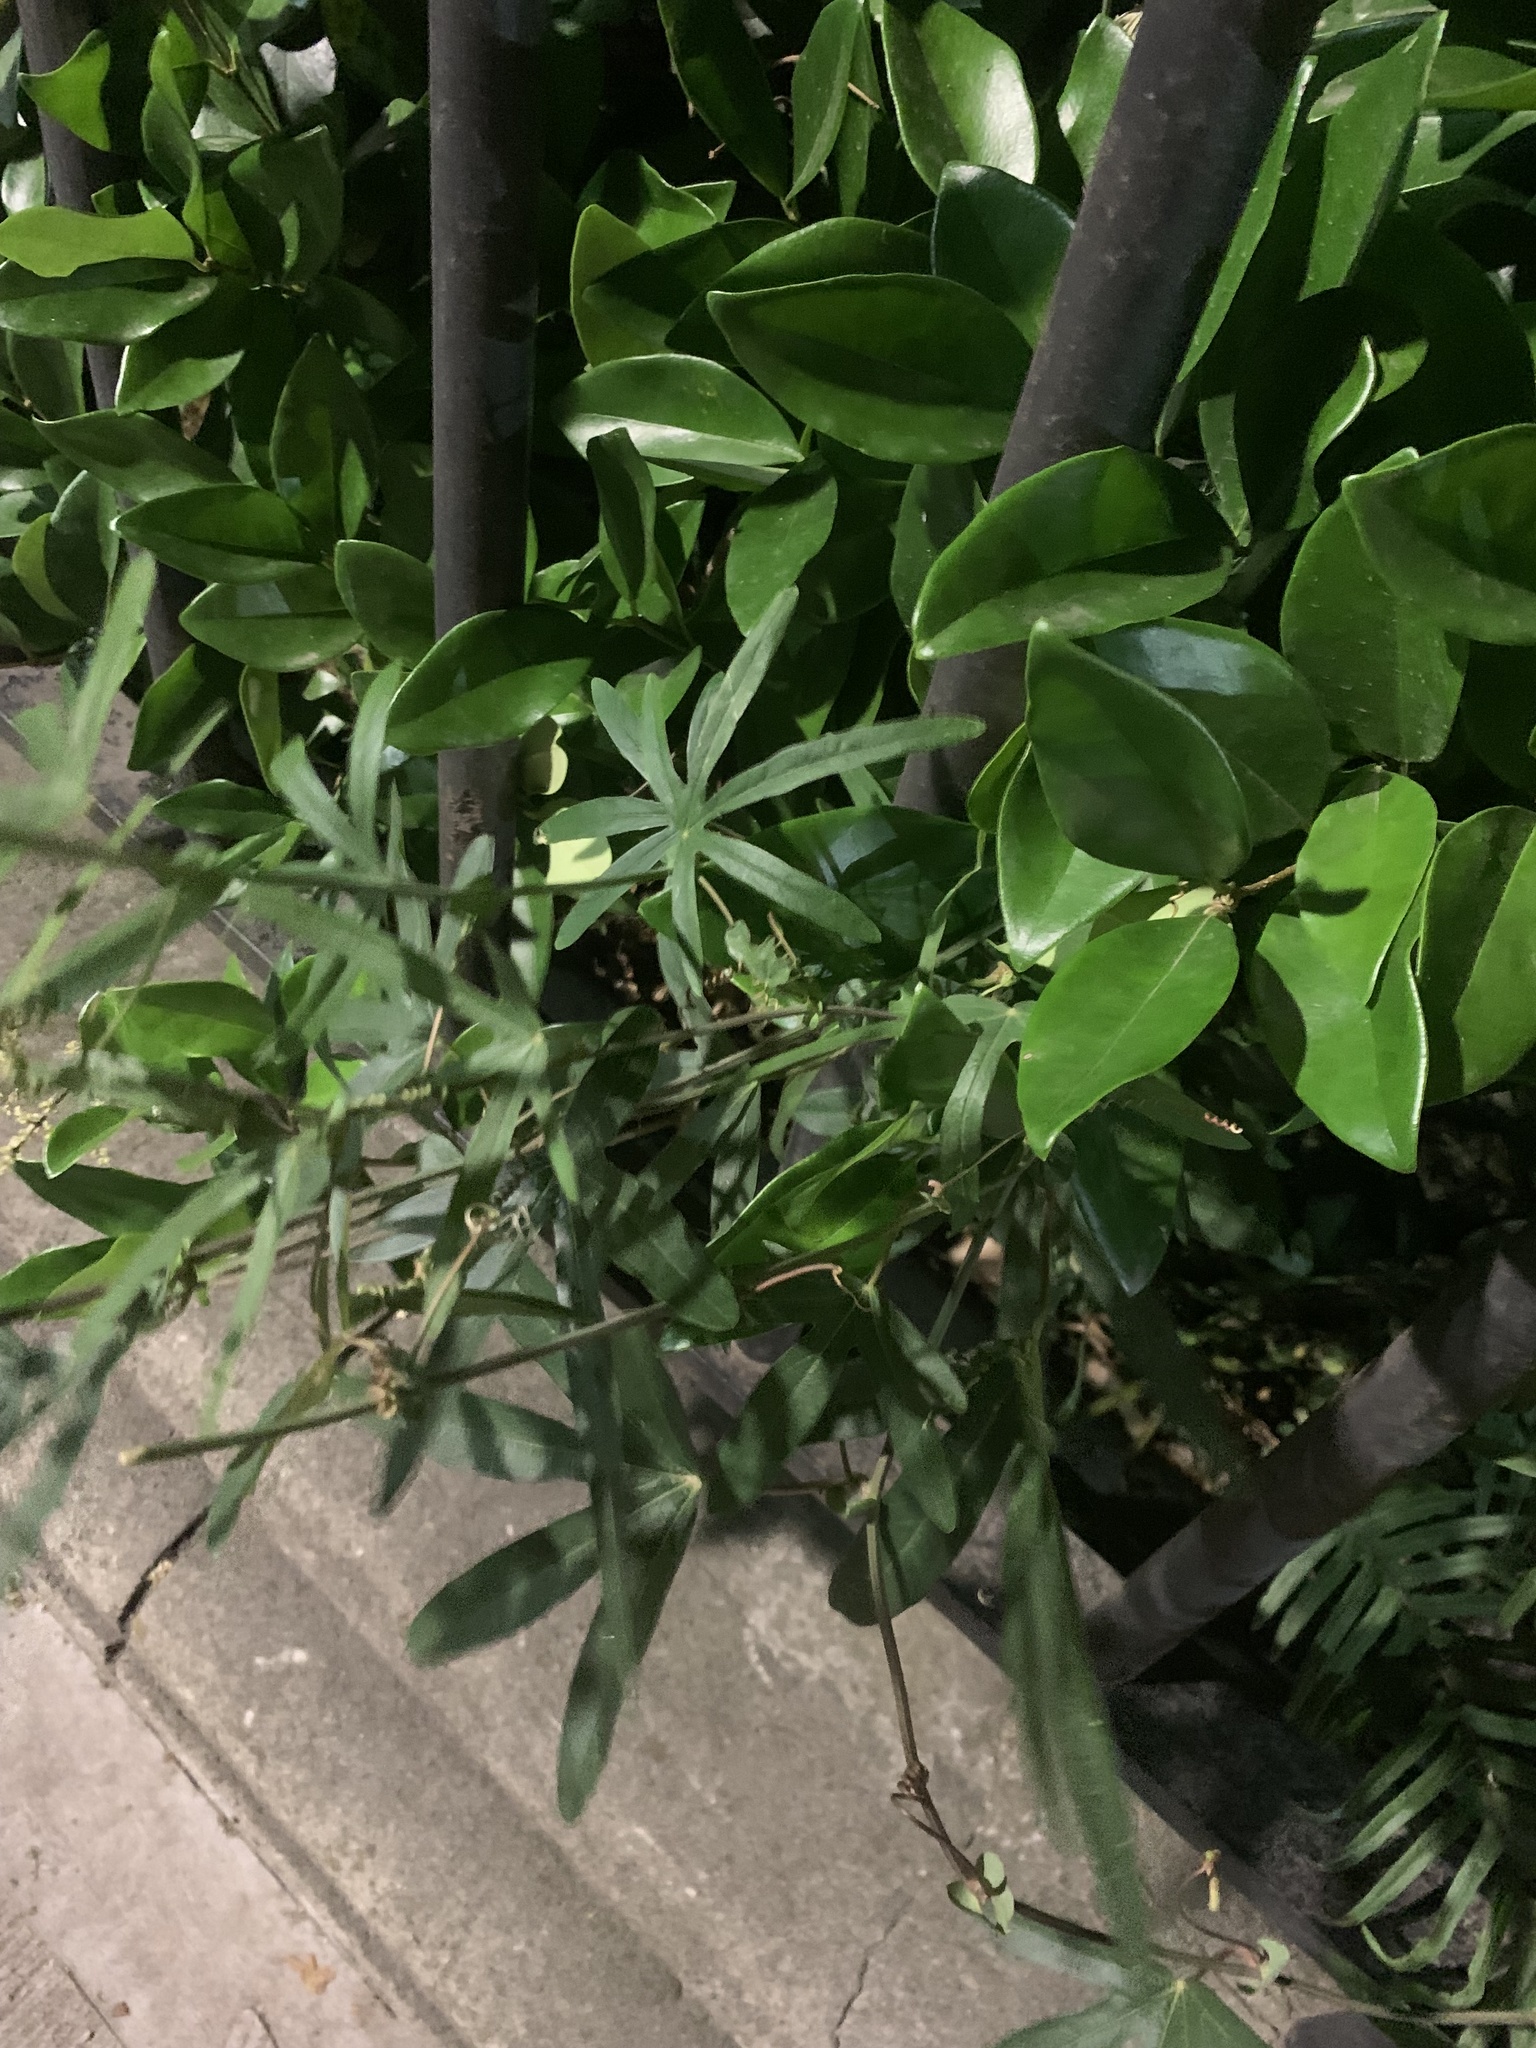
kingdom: Plantae
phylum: Tracheophyta
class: Magnoliopsida
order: Malpighiales
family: Passifloraceae
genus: Passiflora
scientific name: Passiflora caerulea
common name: Blue passionflower
